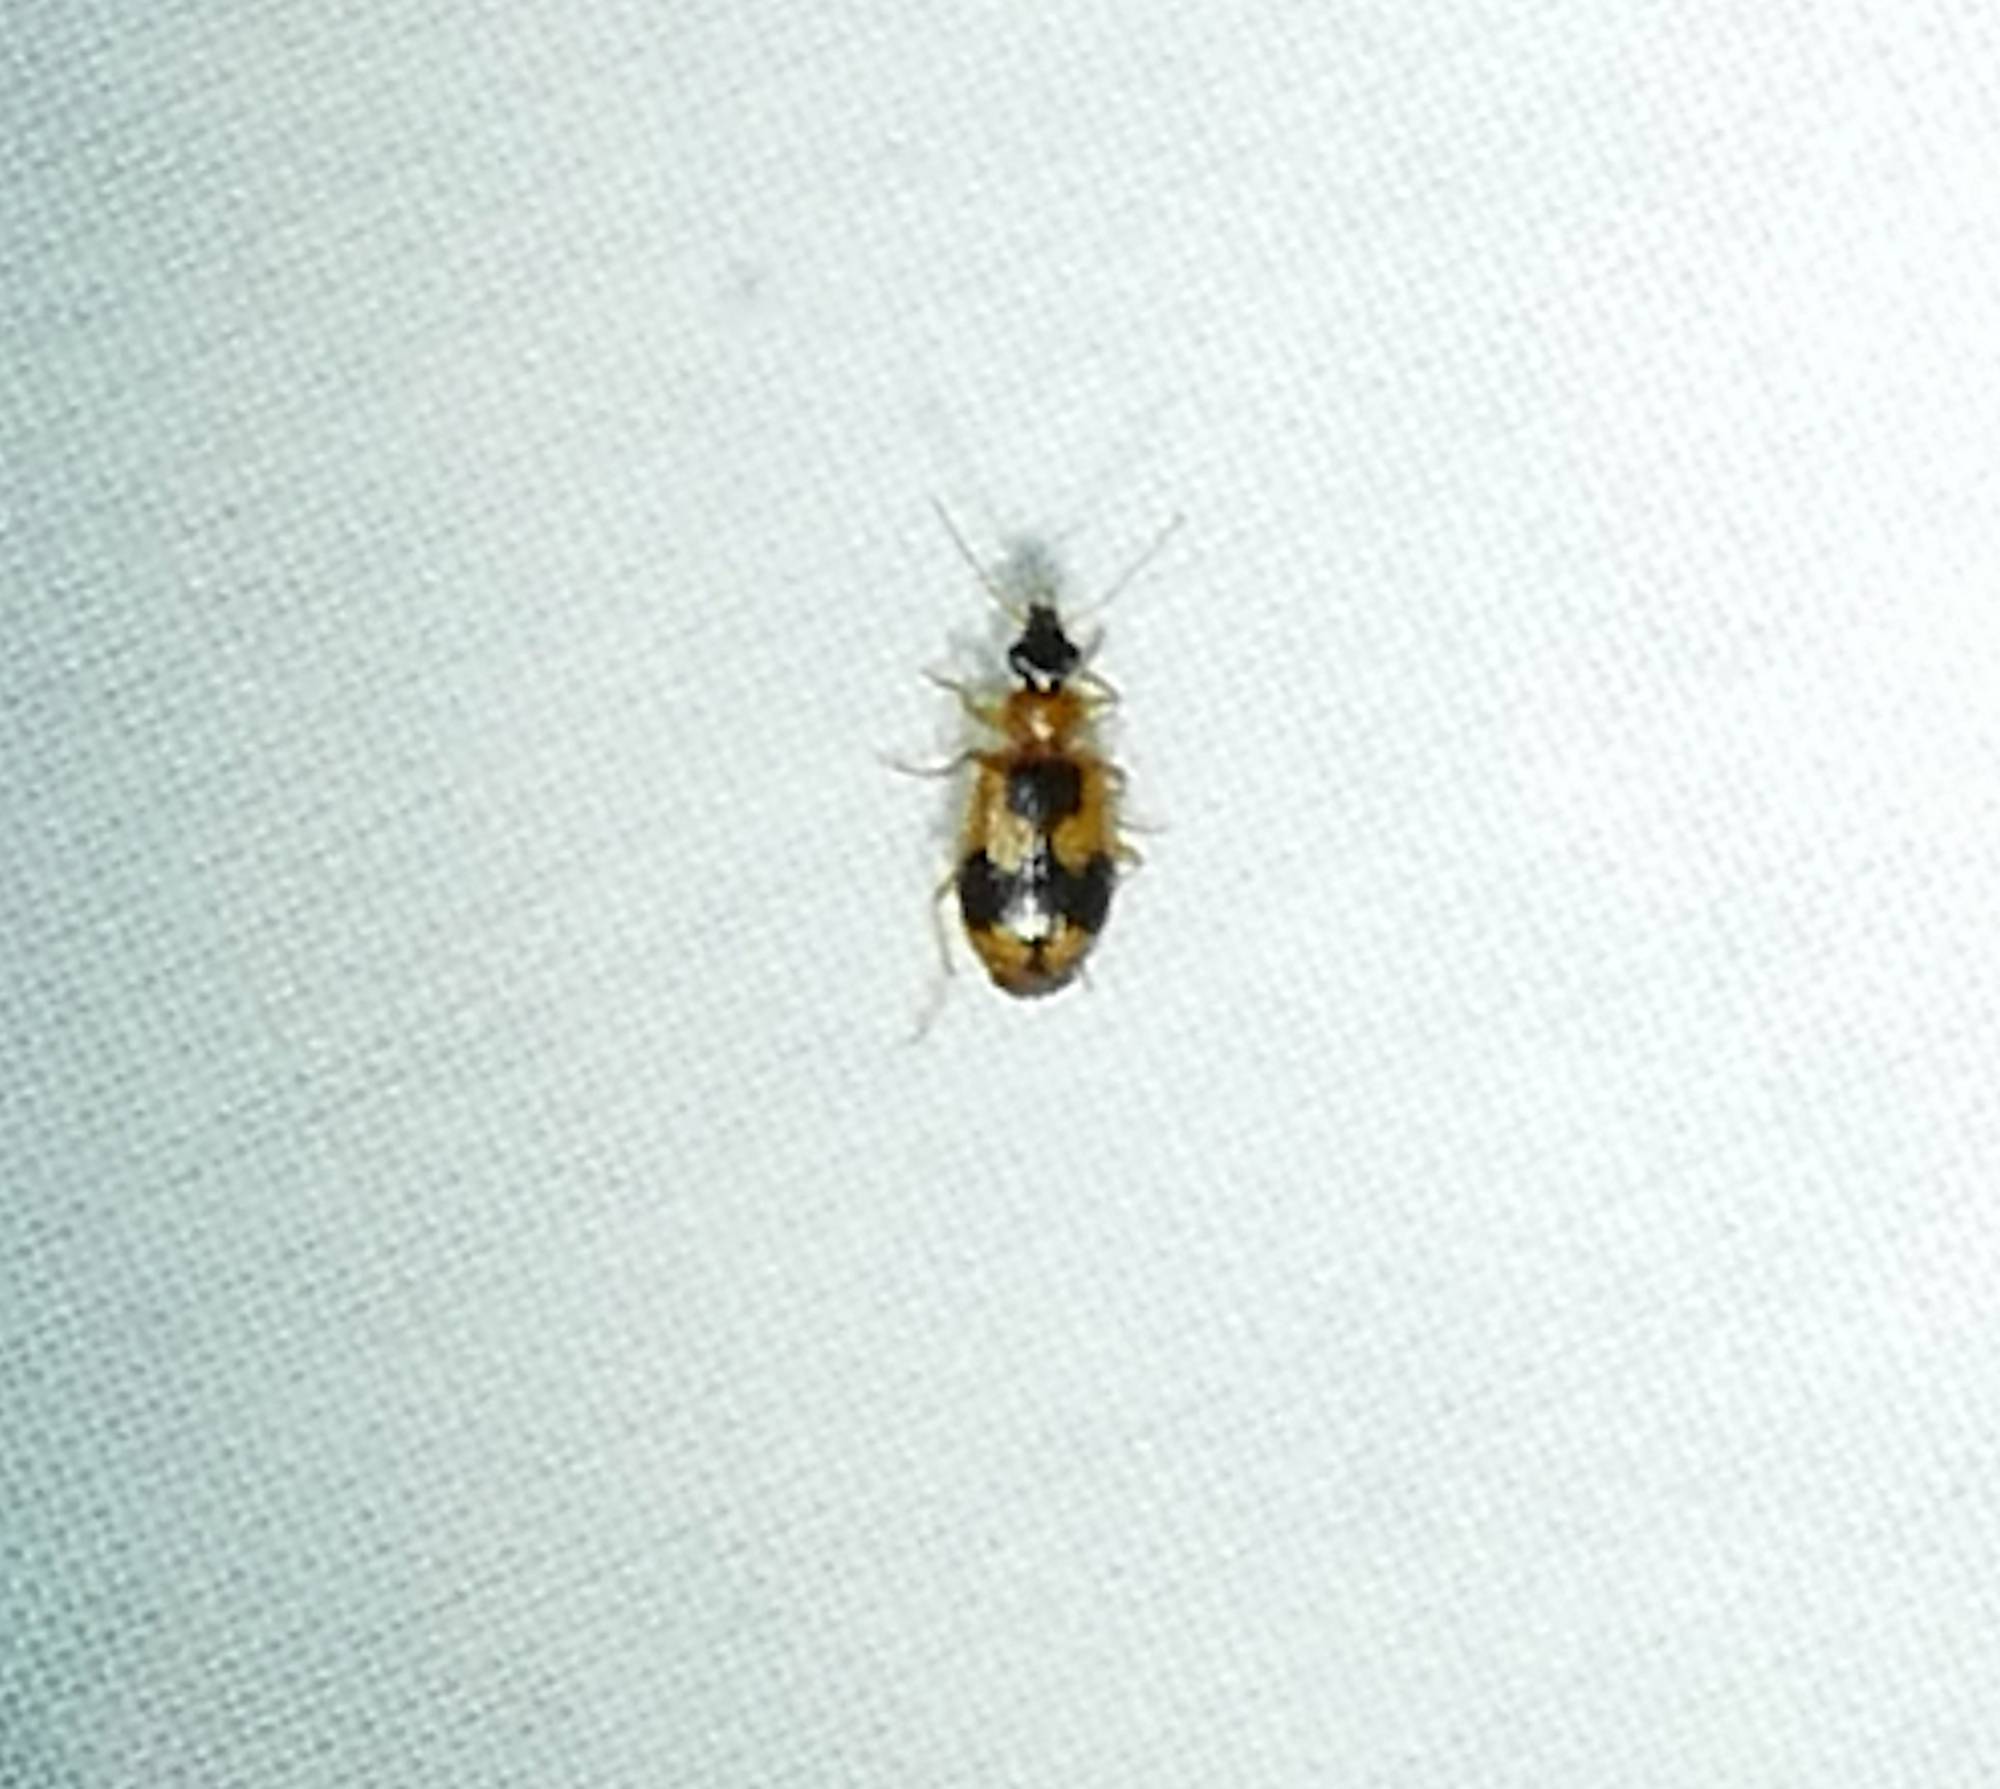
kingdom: Animalia
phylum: Arthropoda
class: Insecta
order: Coleoptera
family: Carabidae
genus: Lebia
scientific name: Lebia analis
